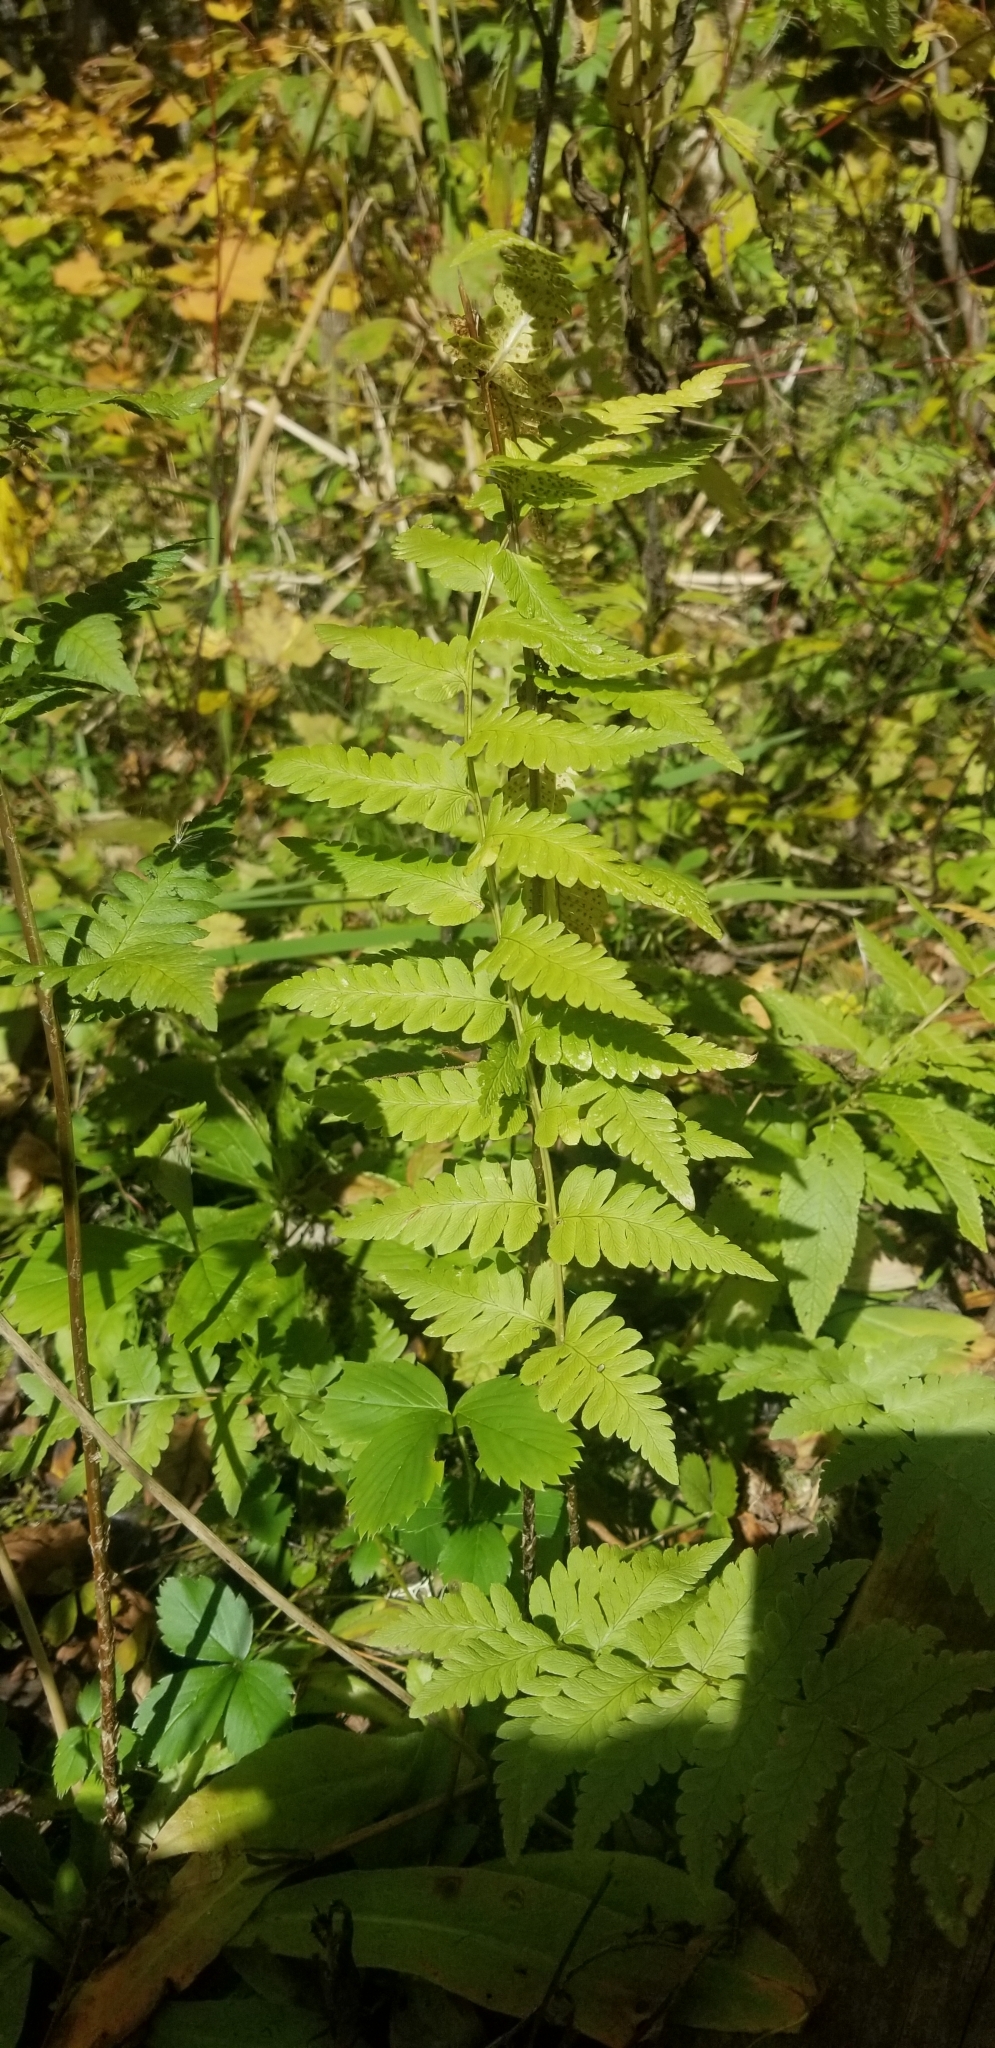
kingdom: Plantae
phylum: Tracheophyta
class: Polypodiopsida
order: Polypodiales
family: Dryopteridaceae
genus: Dryopteris
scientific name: Dryopteris cristata
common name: Crested wood fern
